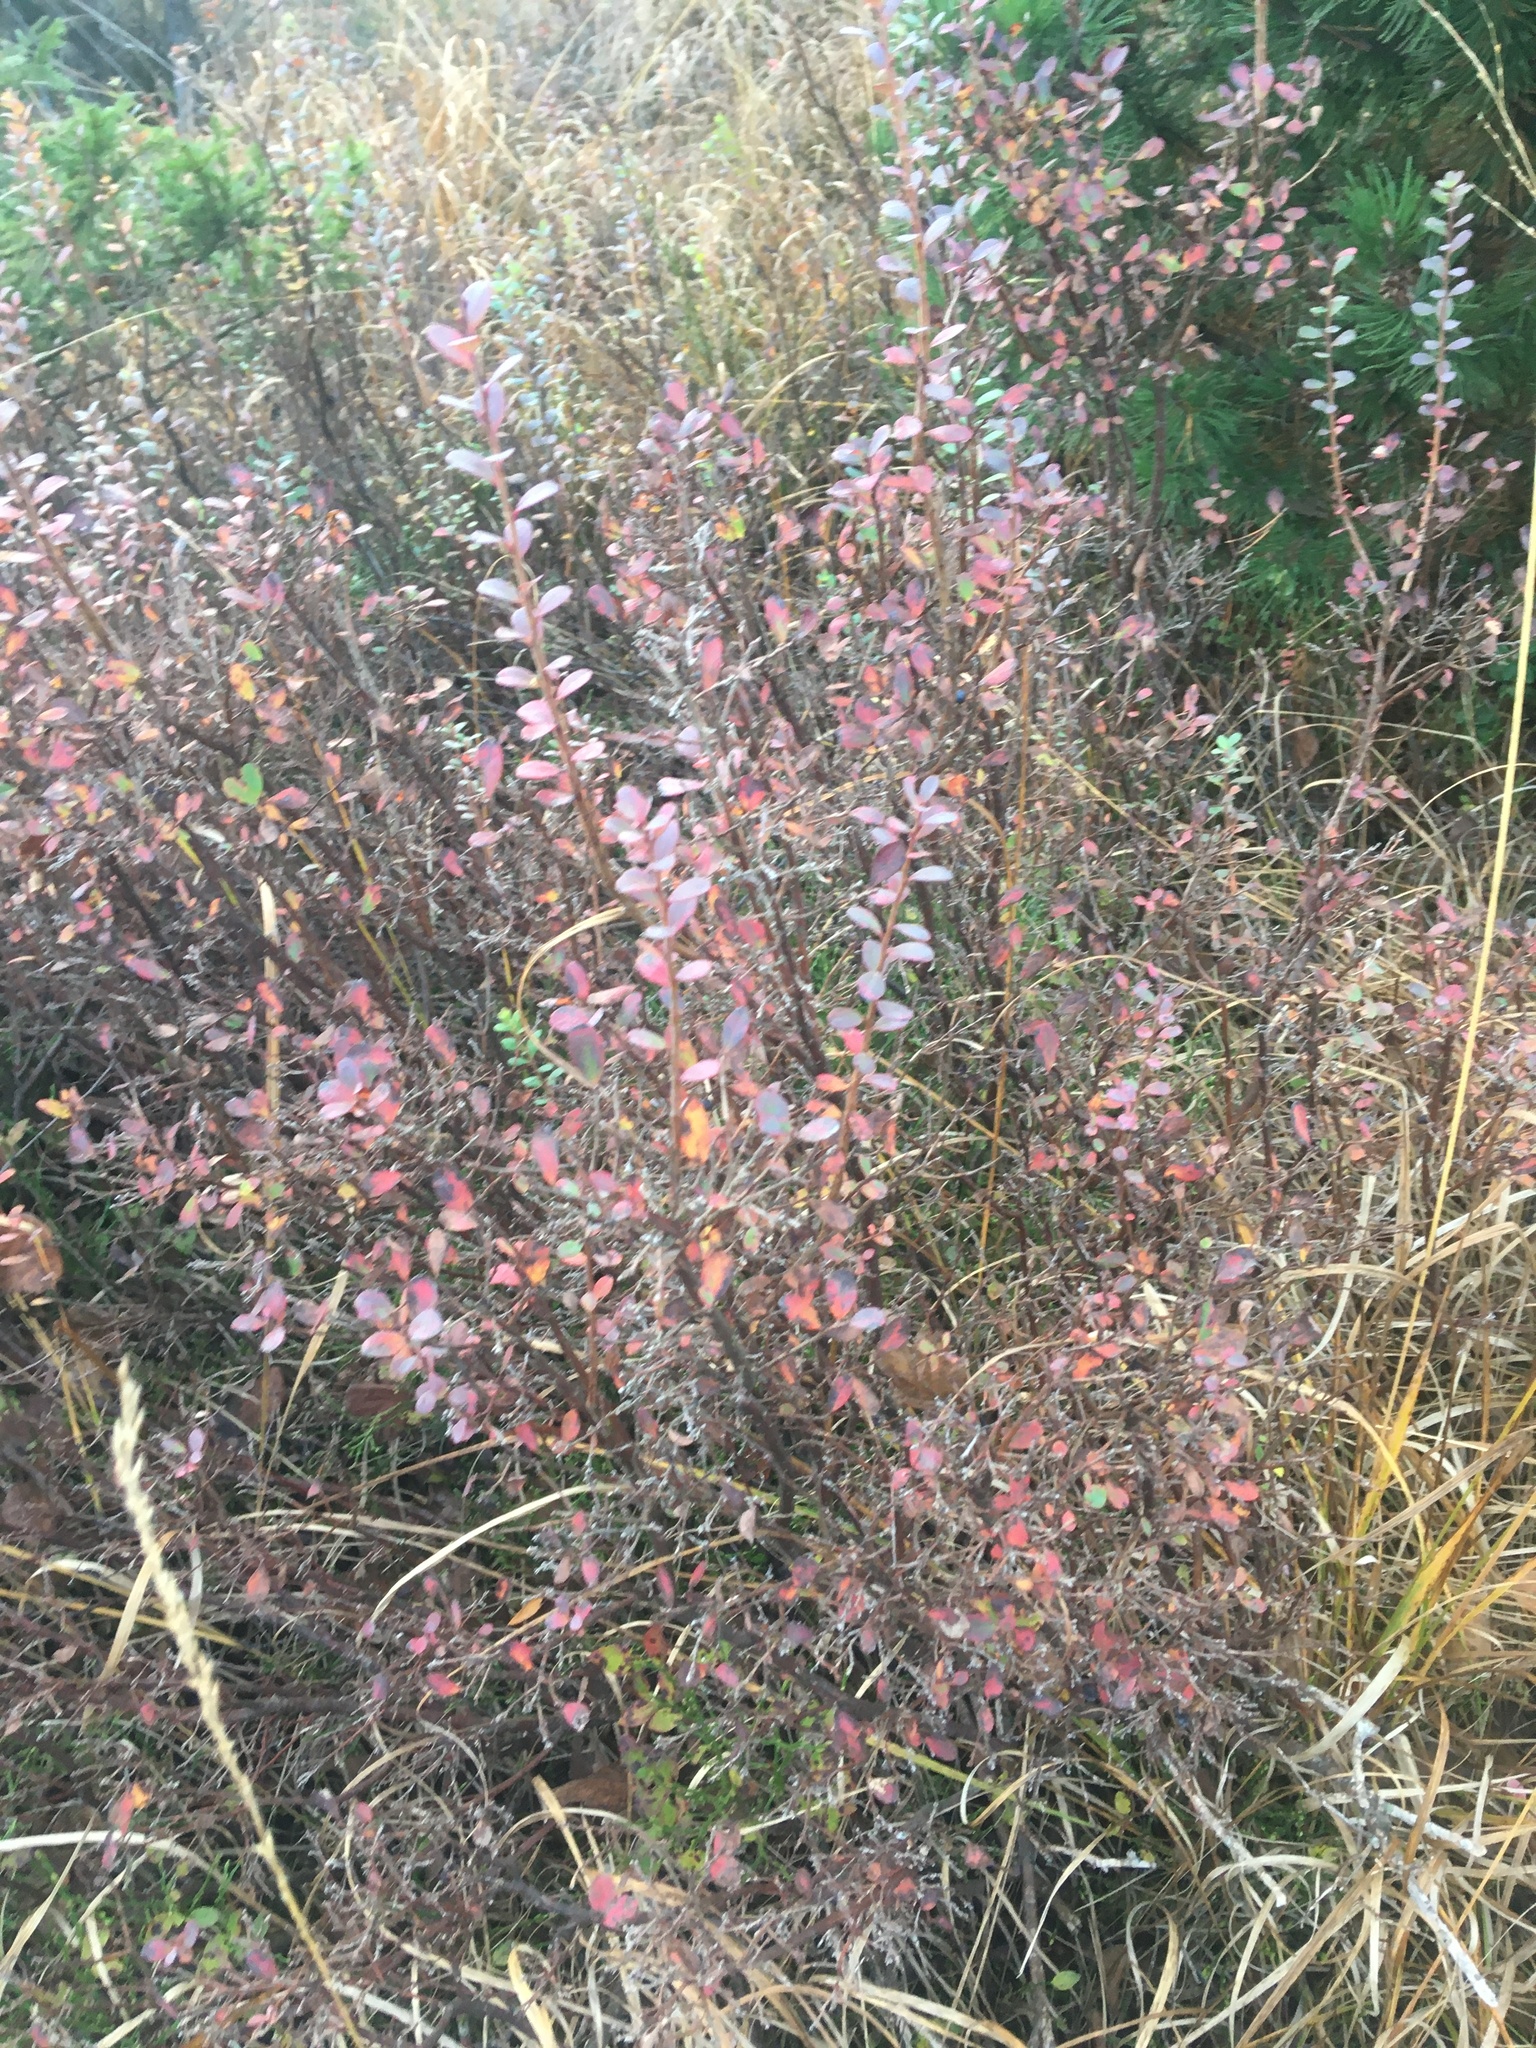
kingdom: Plantae
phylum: Tracheophyta
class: Magnoliopsida
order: Ericales
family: Ericaceae
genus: Vaccinium
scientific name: Vaccinium uliginosum
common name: Bog bilberry
